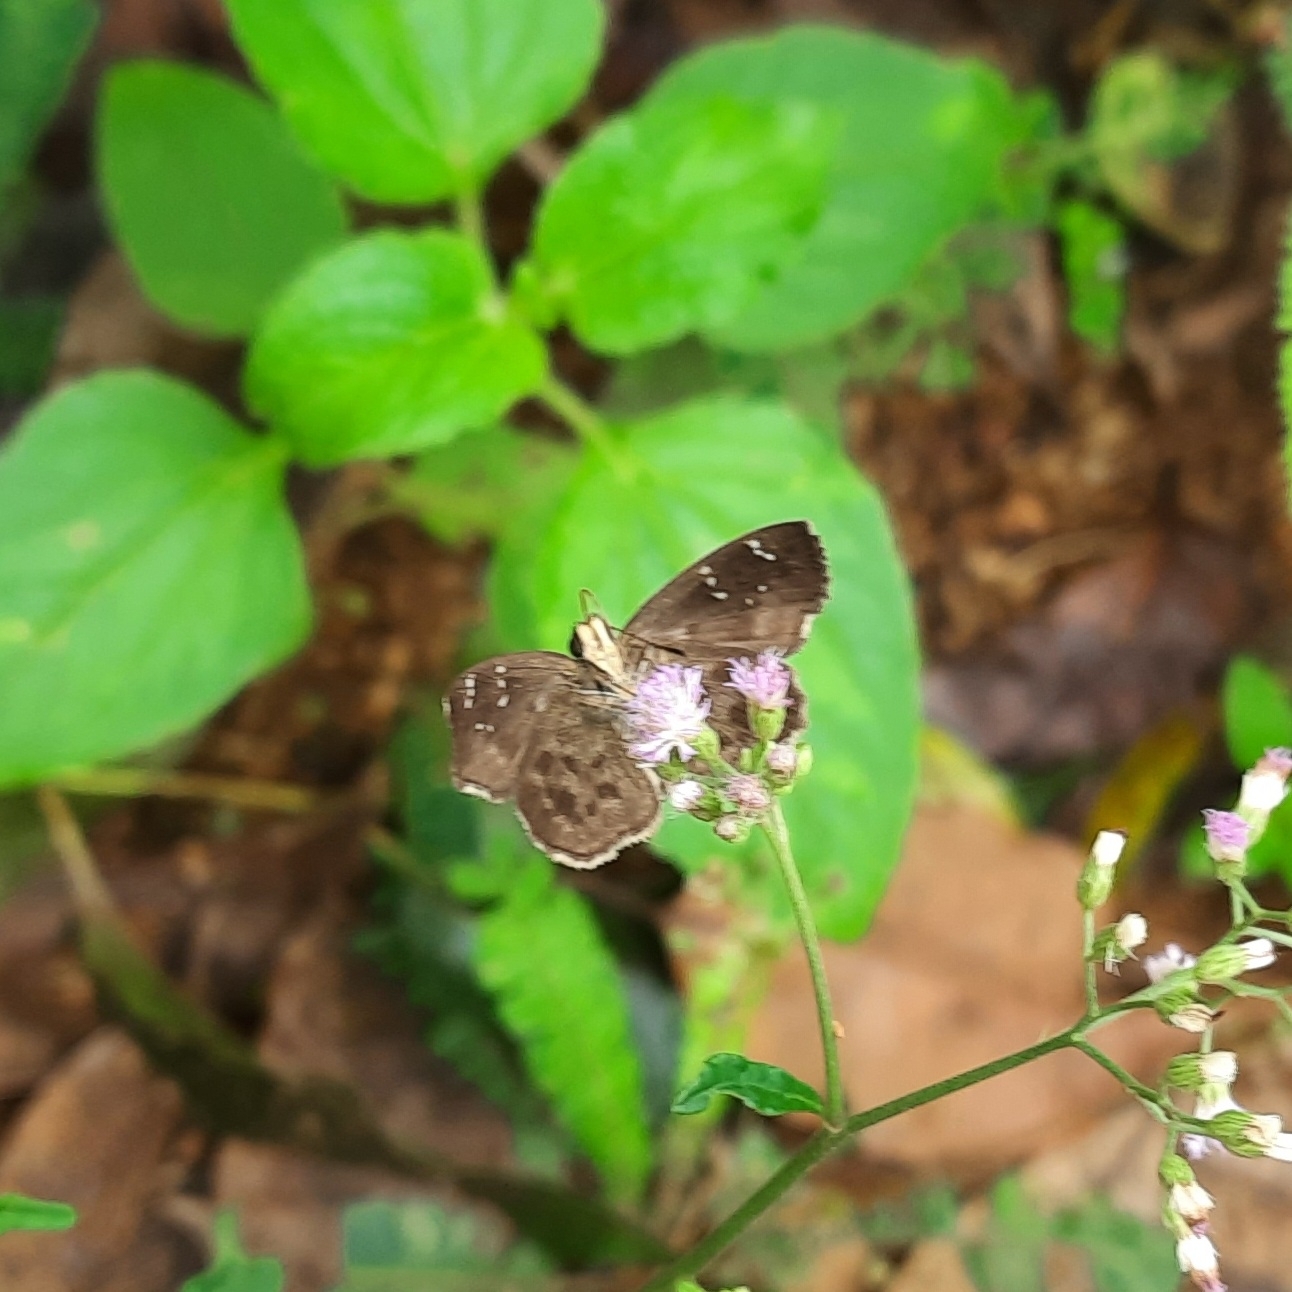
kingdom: Animalia
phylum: Arthropoda
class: Insecta
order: Lepidoptera
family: Hesperiidae
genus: Sarangesa
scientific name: Sarangesa dasahara
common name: Common small flat
